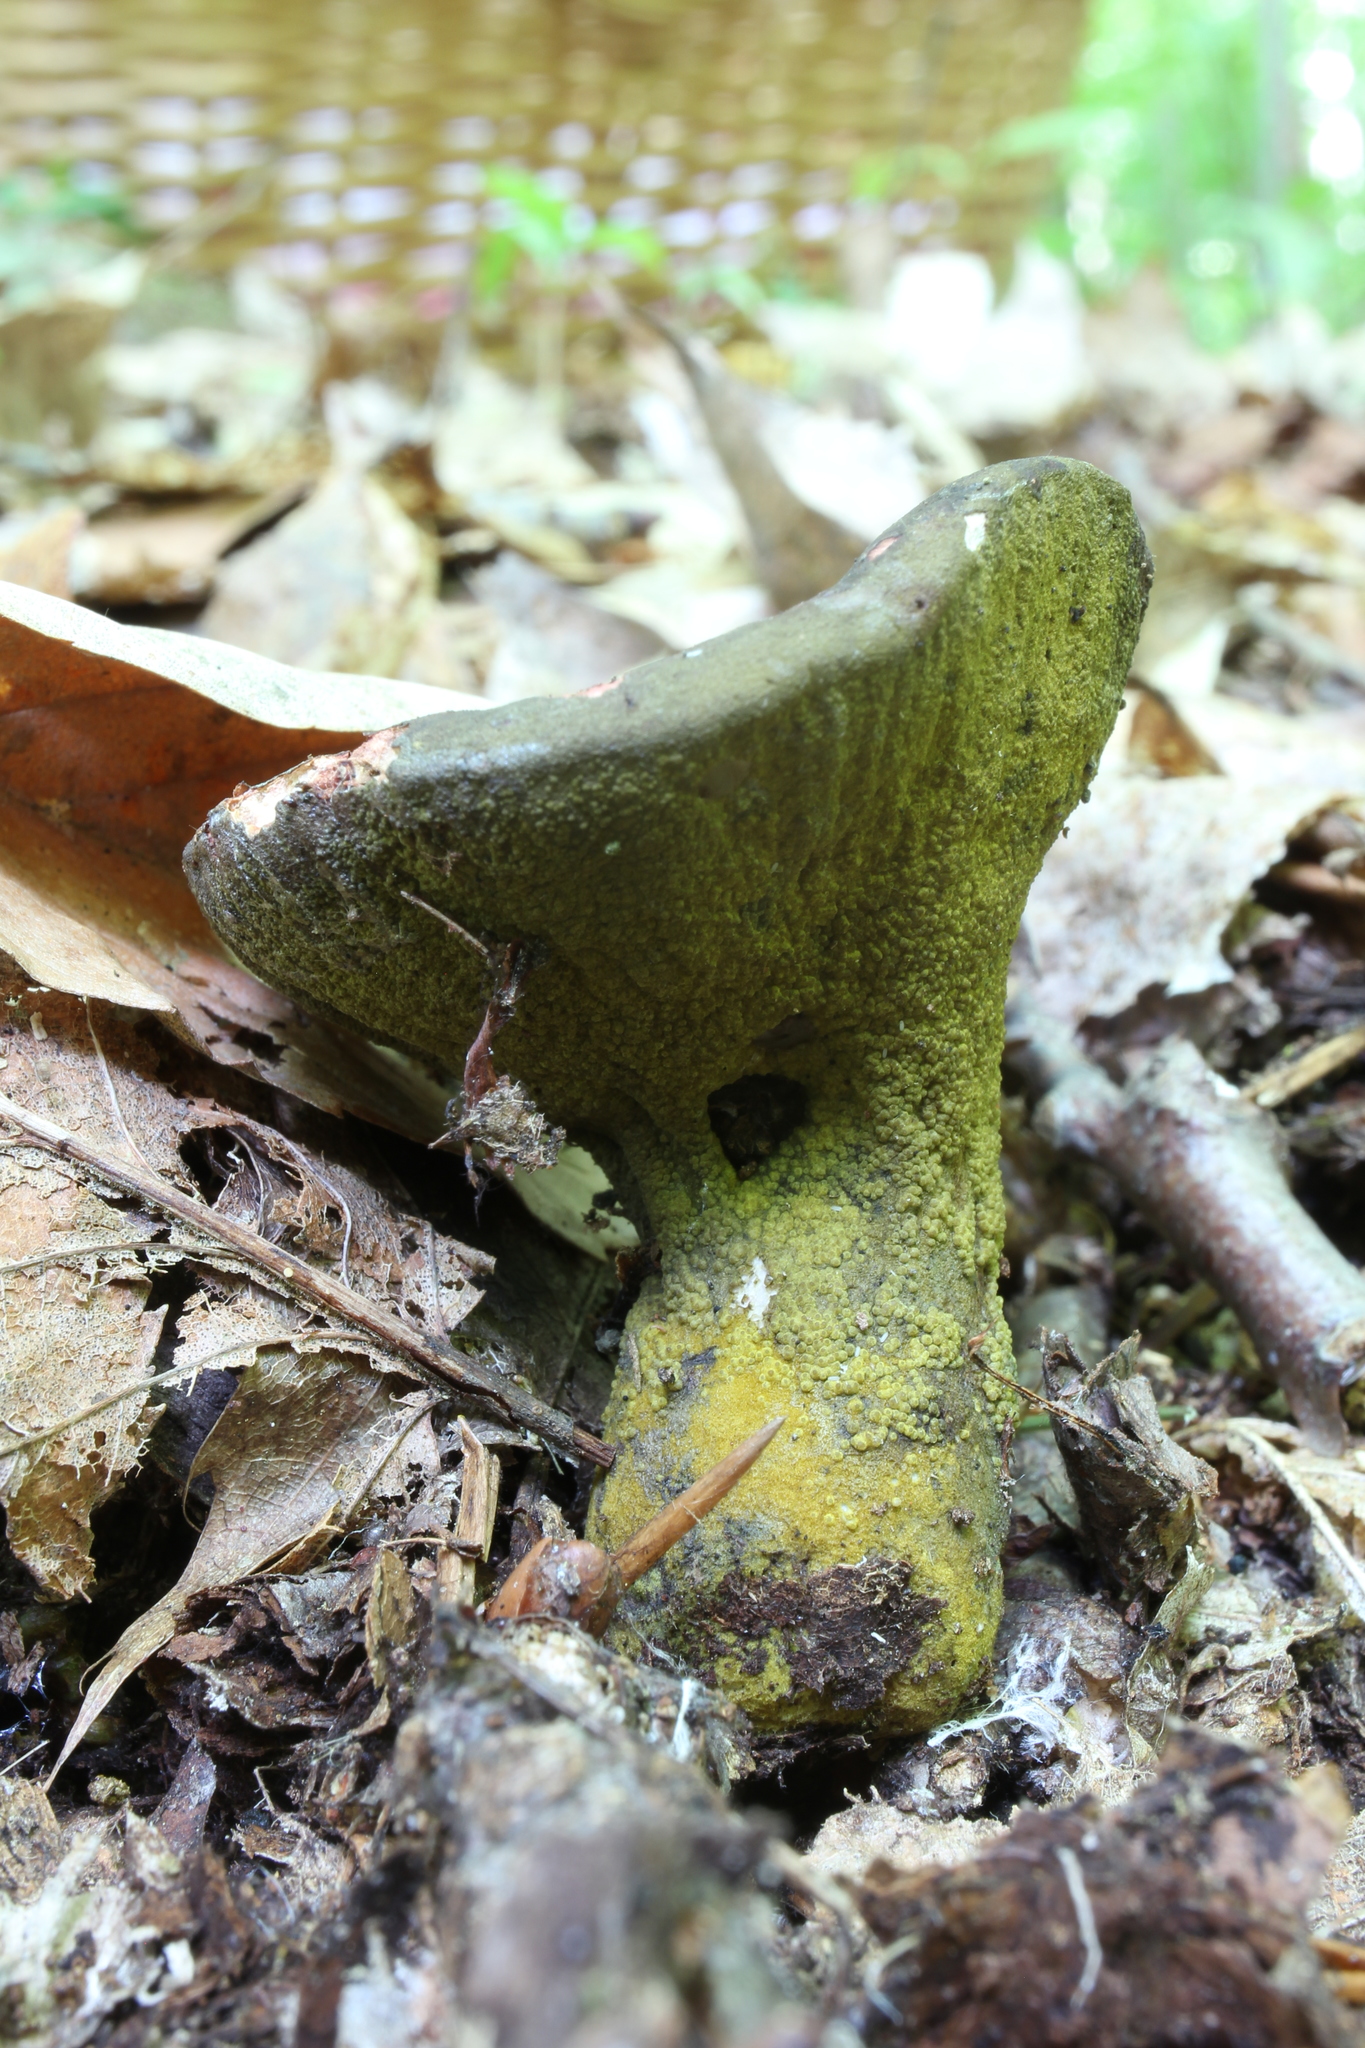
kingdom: Fungi
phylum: Ascomycota
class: Sordariomycetes
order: Hypocreales
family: Hypocreaceae
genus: Hypomyces
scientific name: Hypomyces luteovirens
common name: Yellow-green russula mold
